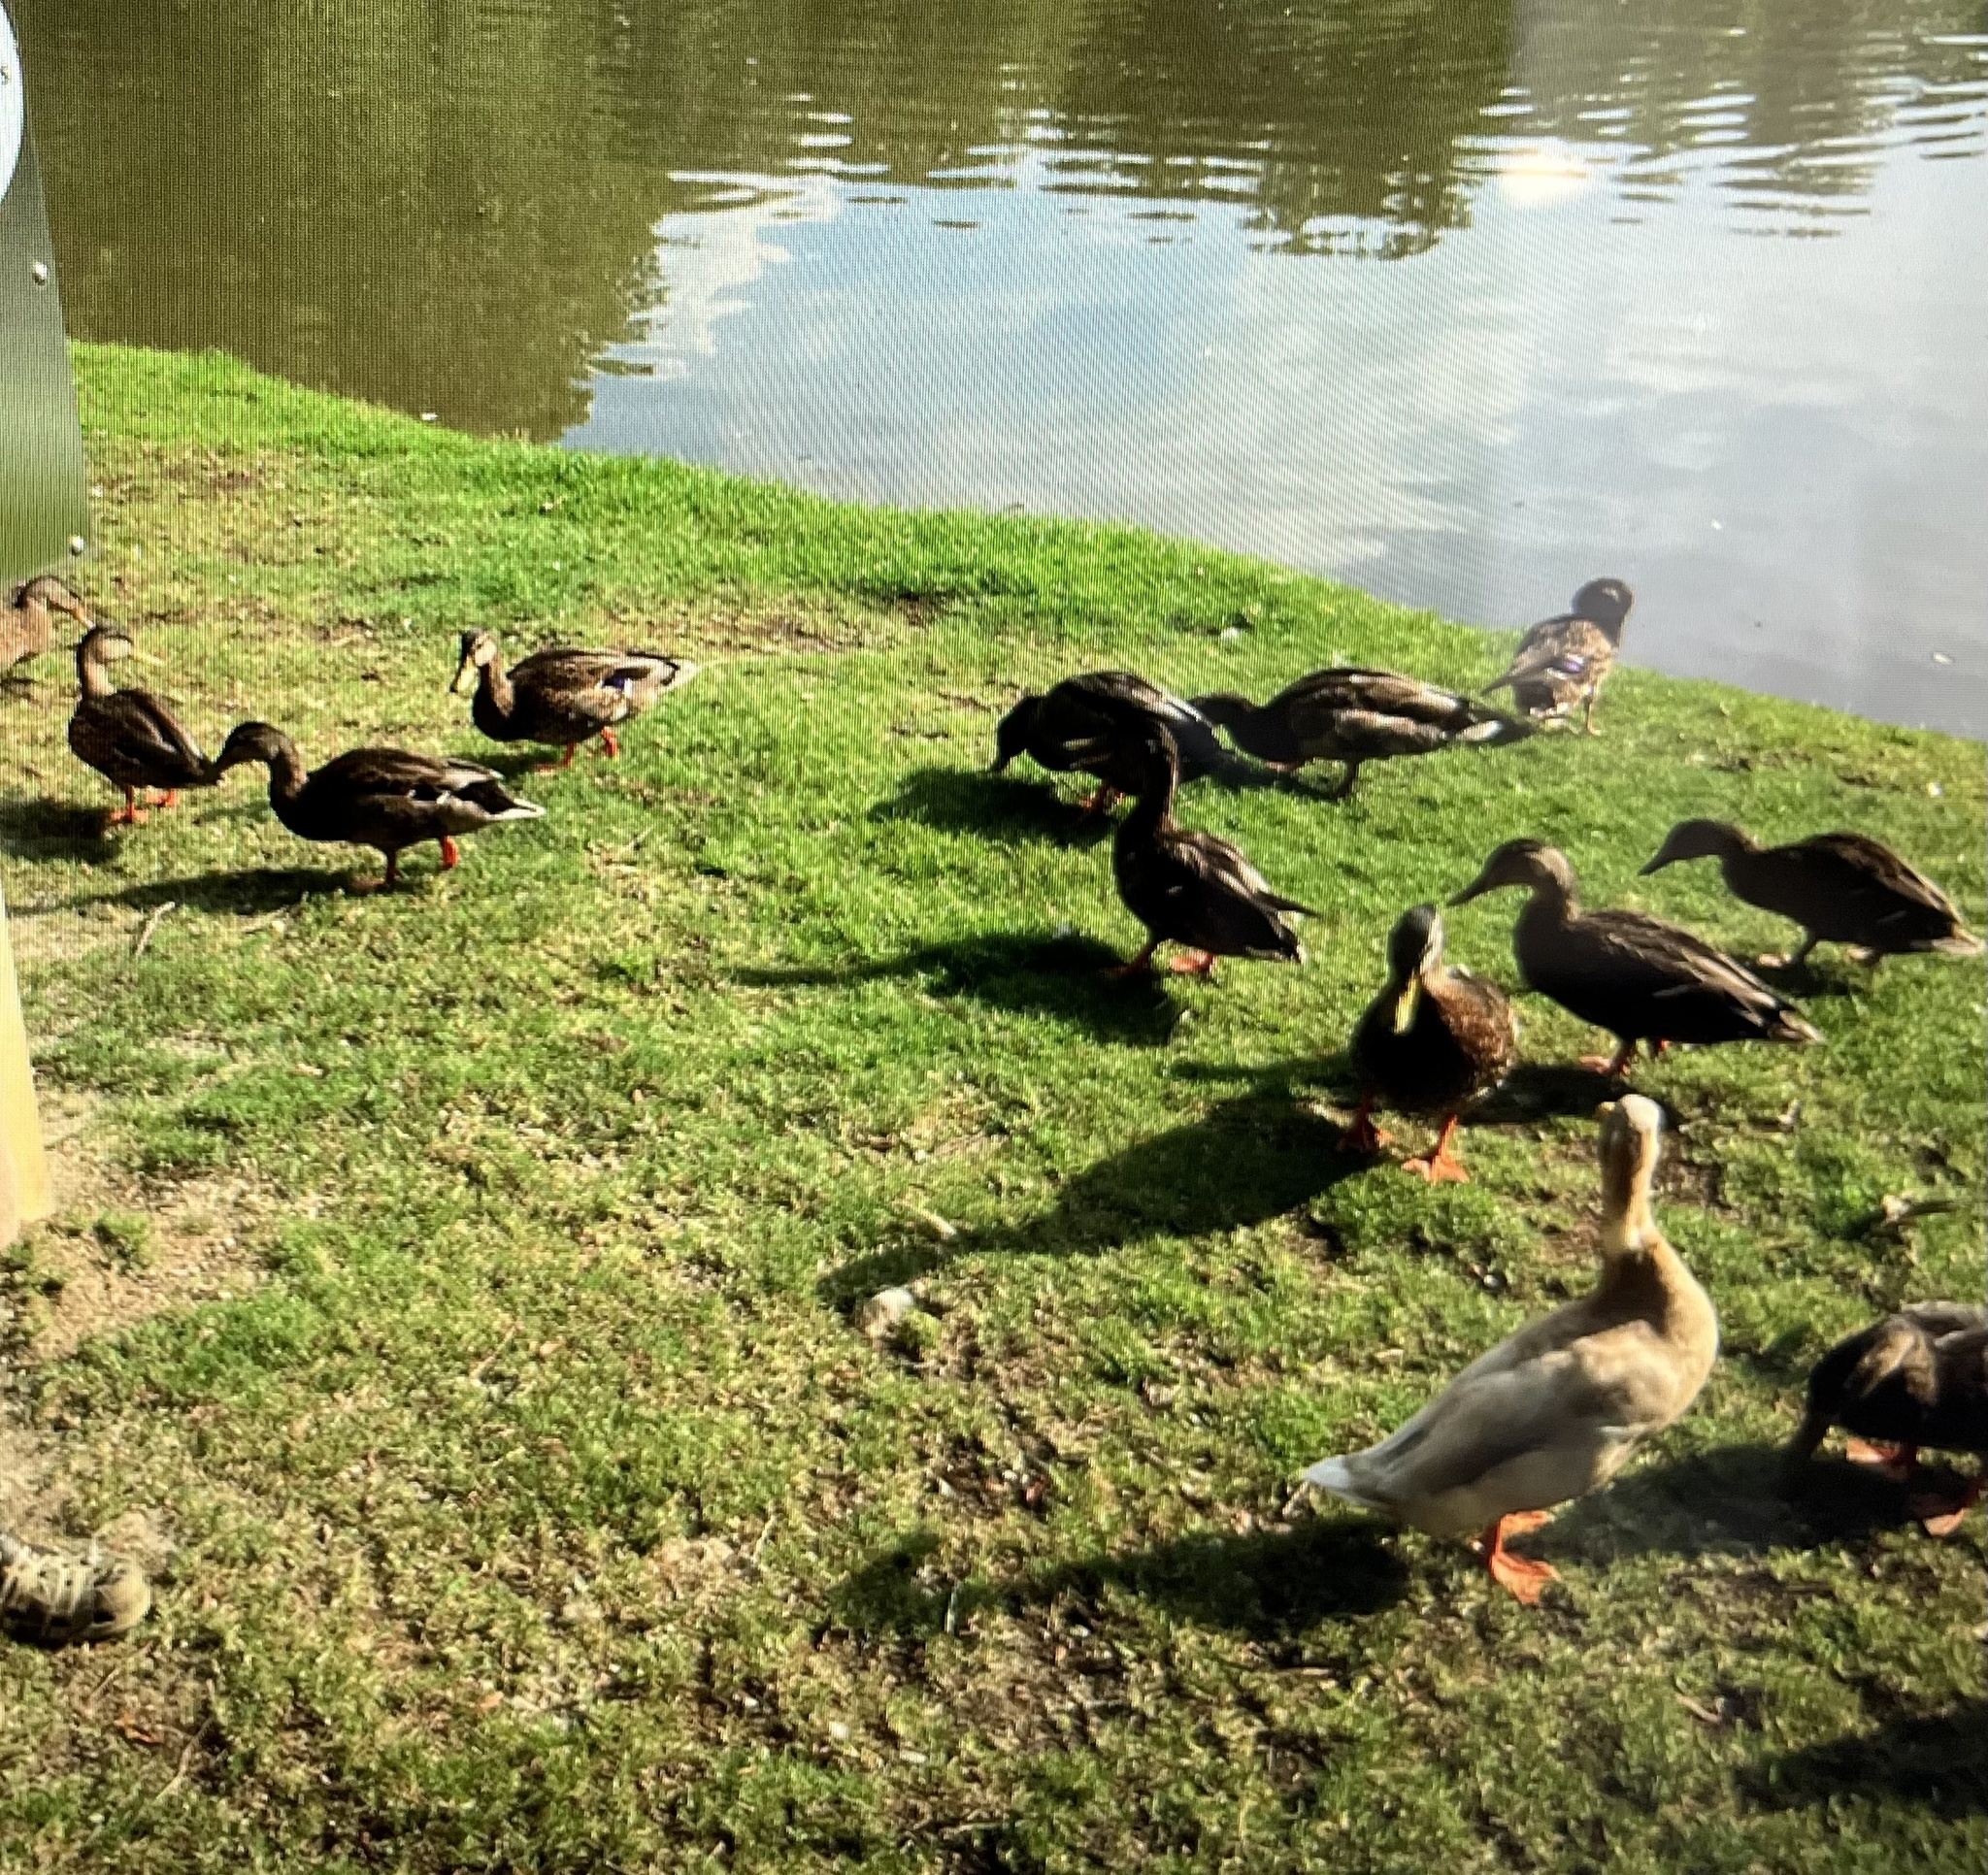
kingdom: Animalia
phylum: Chordata
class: Aves
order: Anseriformes
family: Anatidae
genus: Anas
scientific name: Anas platyrhynchos
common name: Mallard
